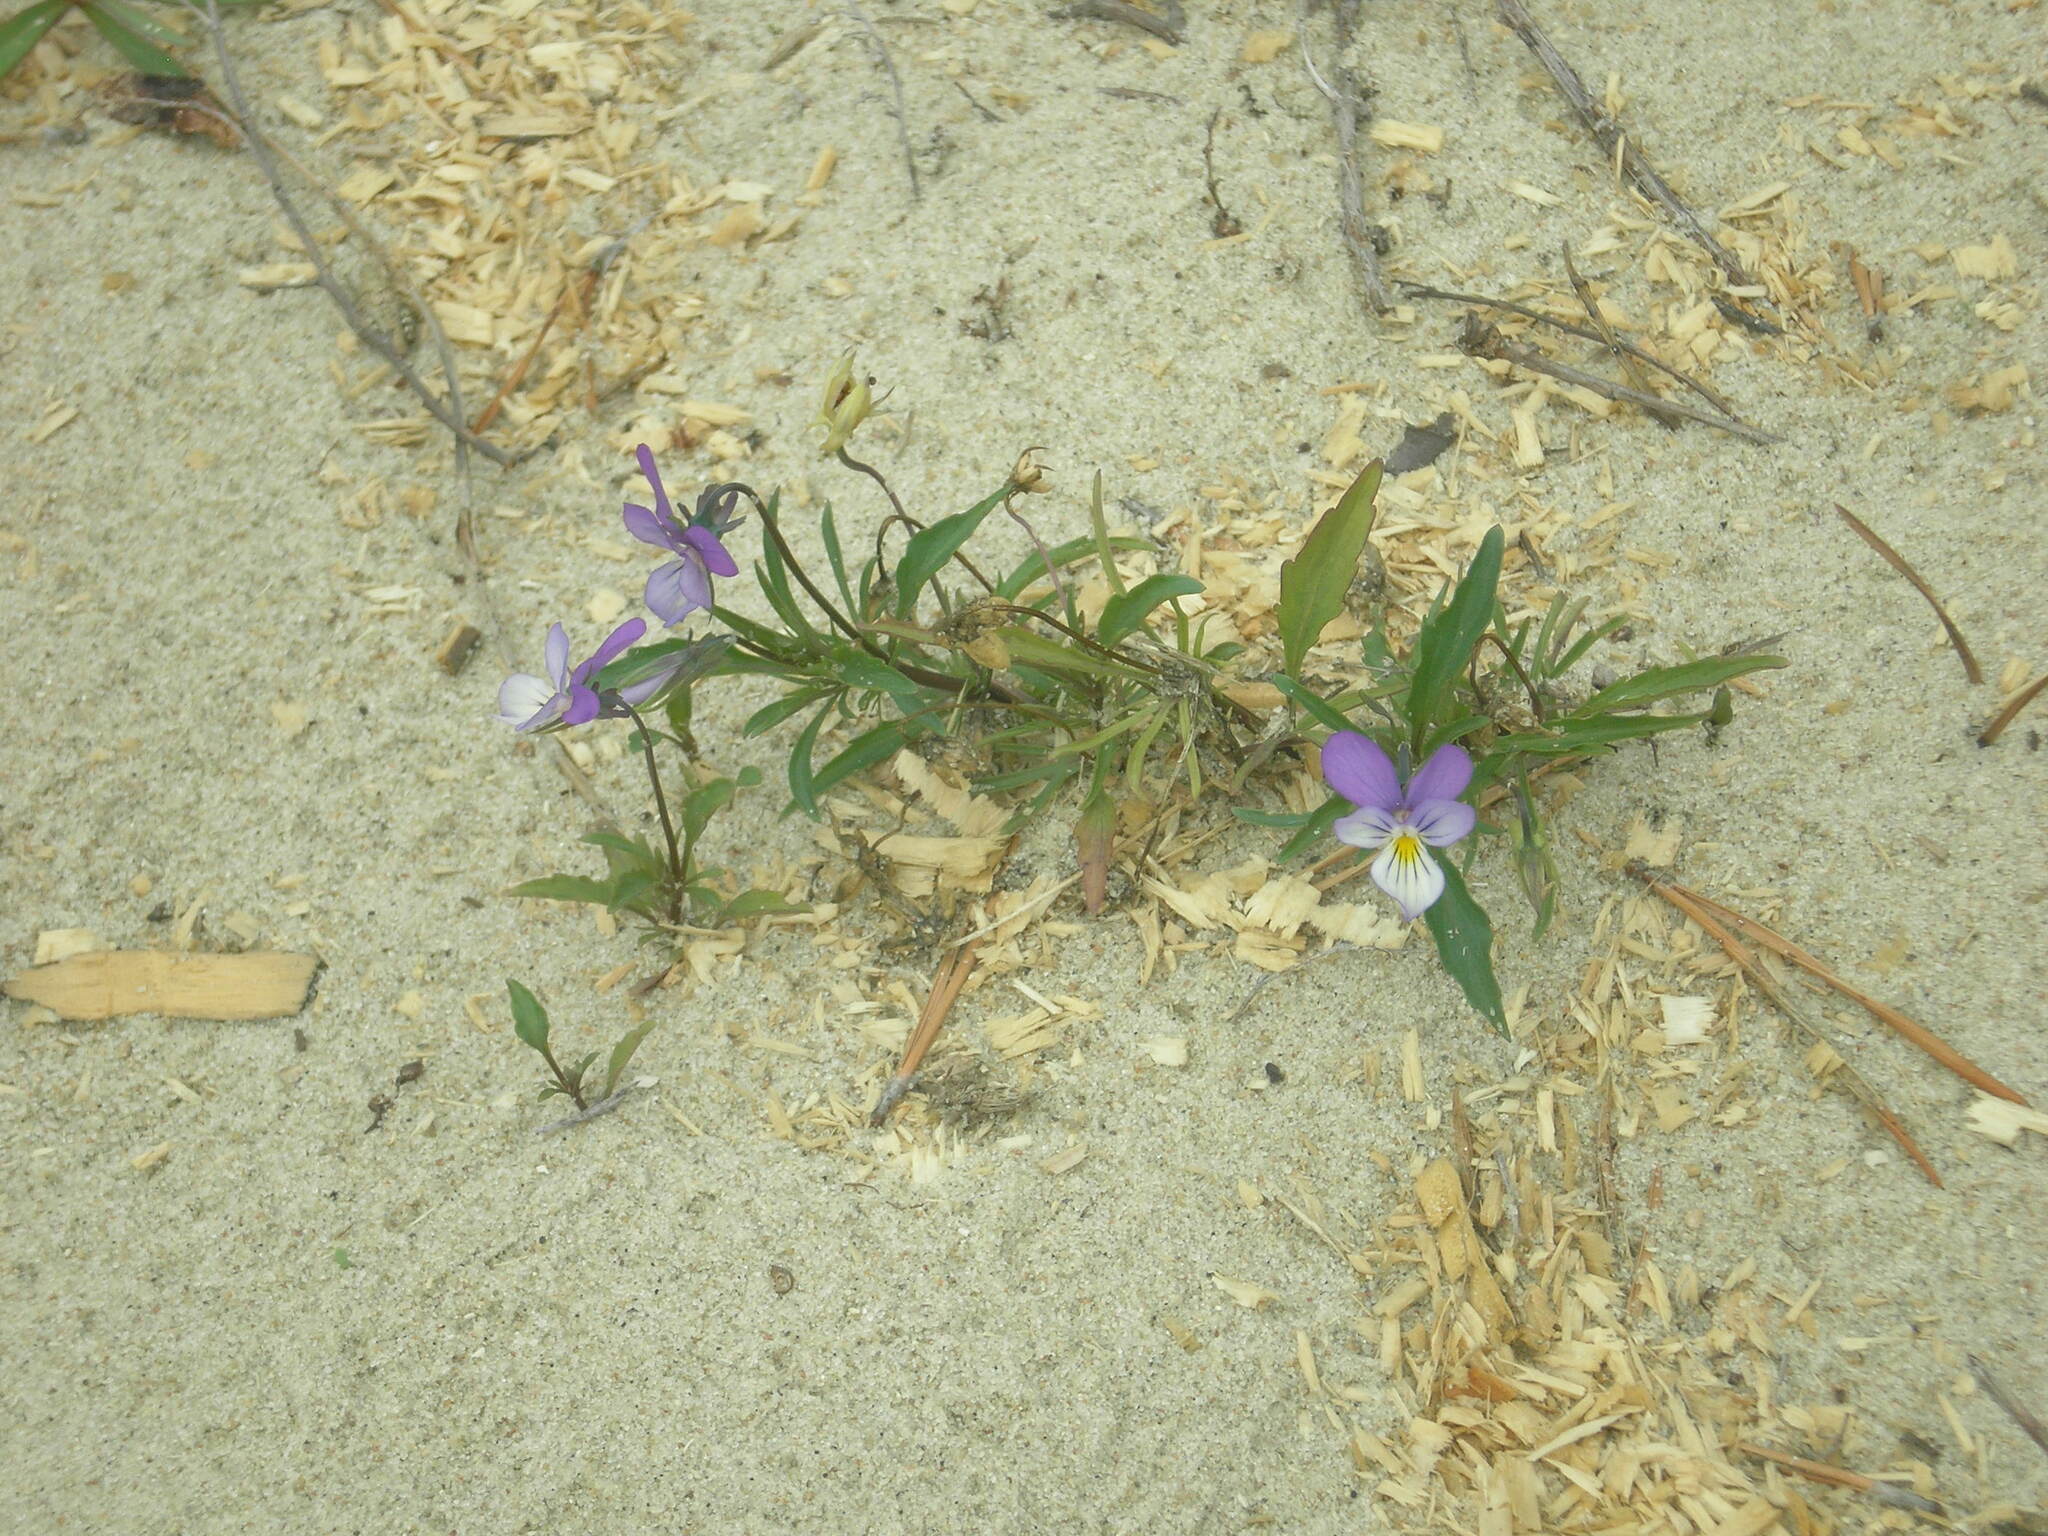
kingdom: Plantae
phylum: Tracheophyta
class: Magnoliopsida
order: Malpighiales
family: Violaceae
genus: Viola
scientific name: Viola tricolor
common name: Pansy
